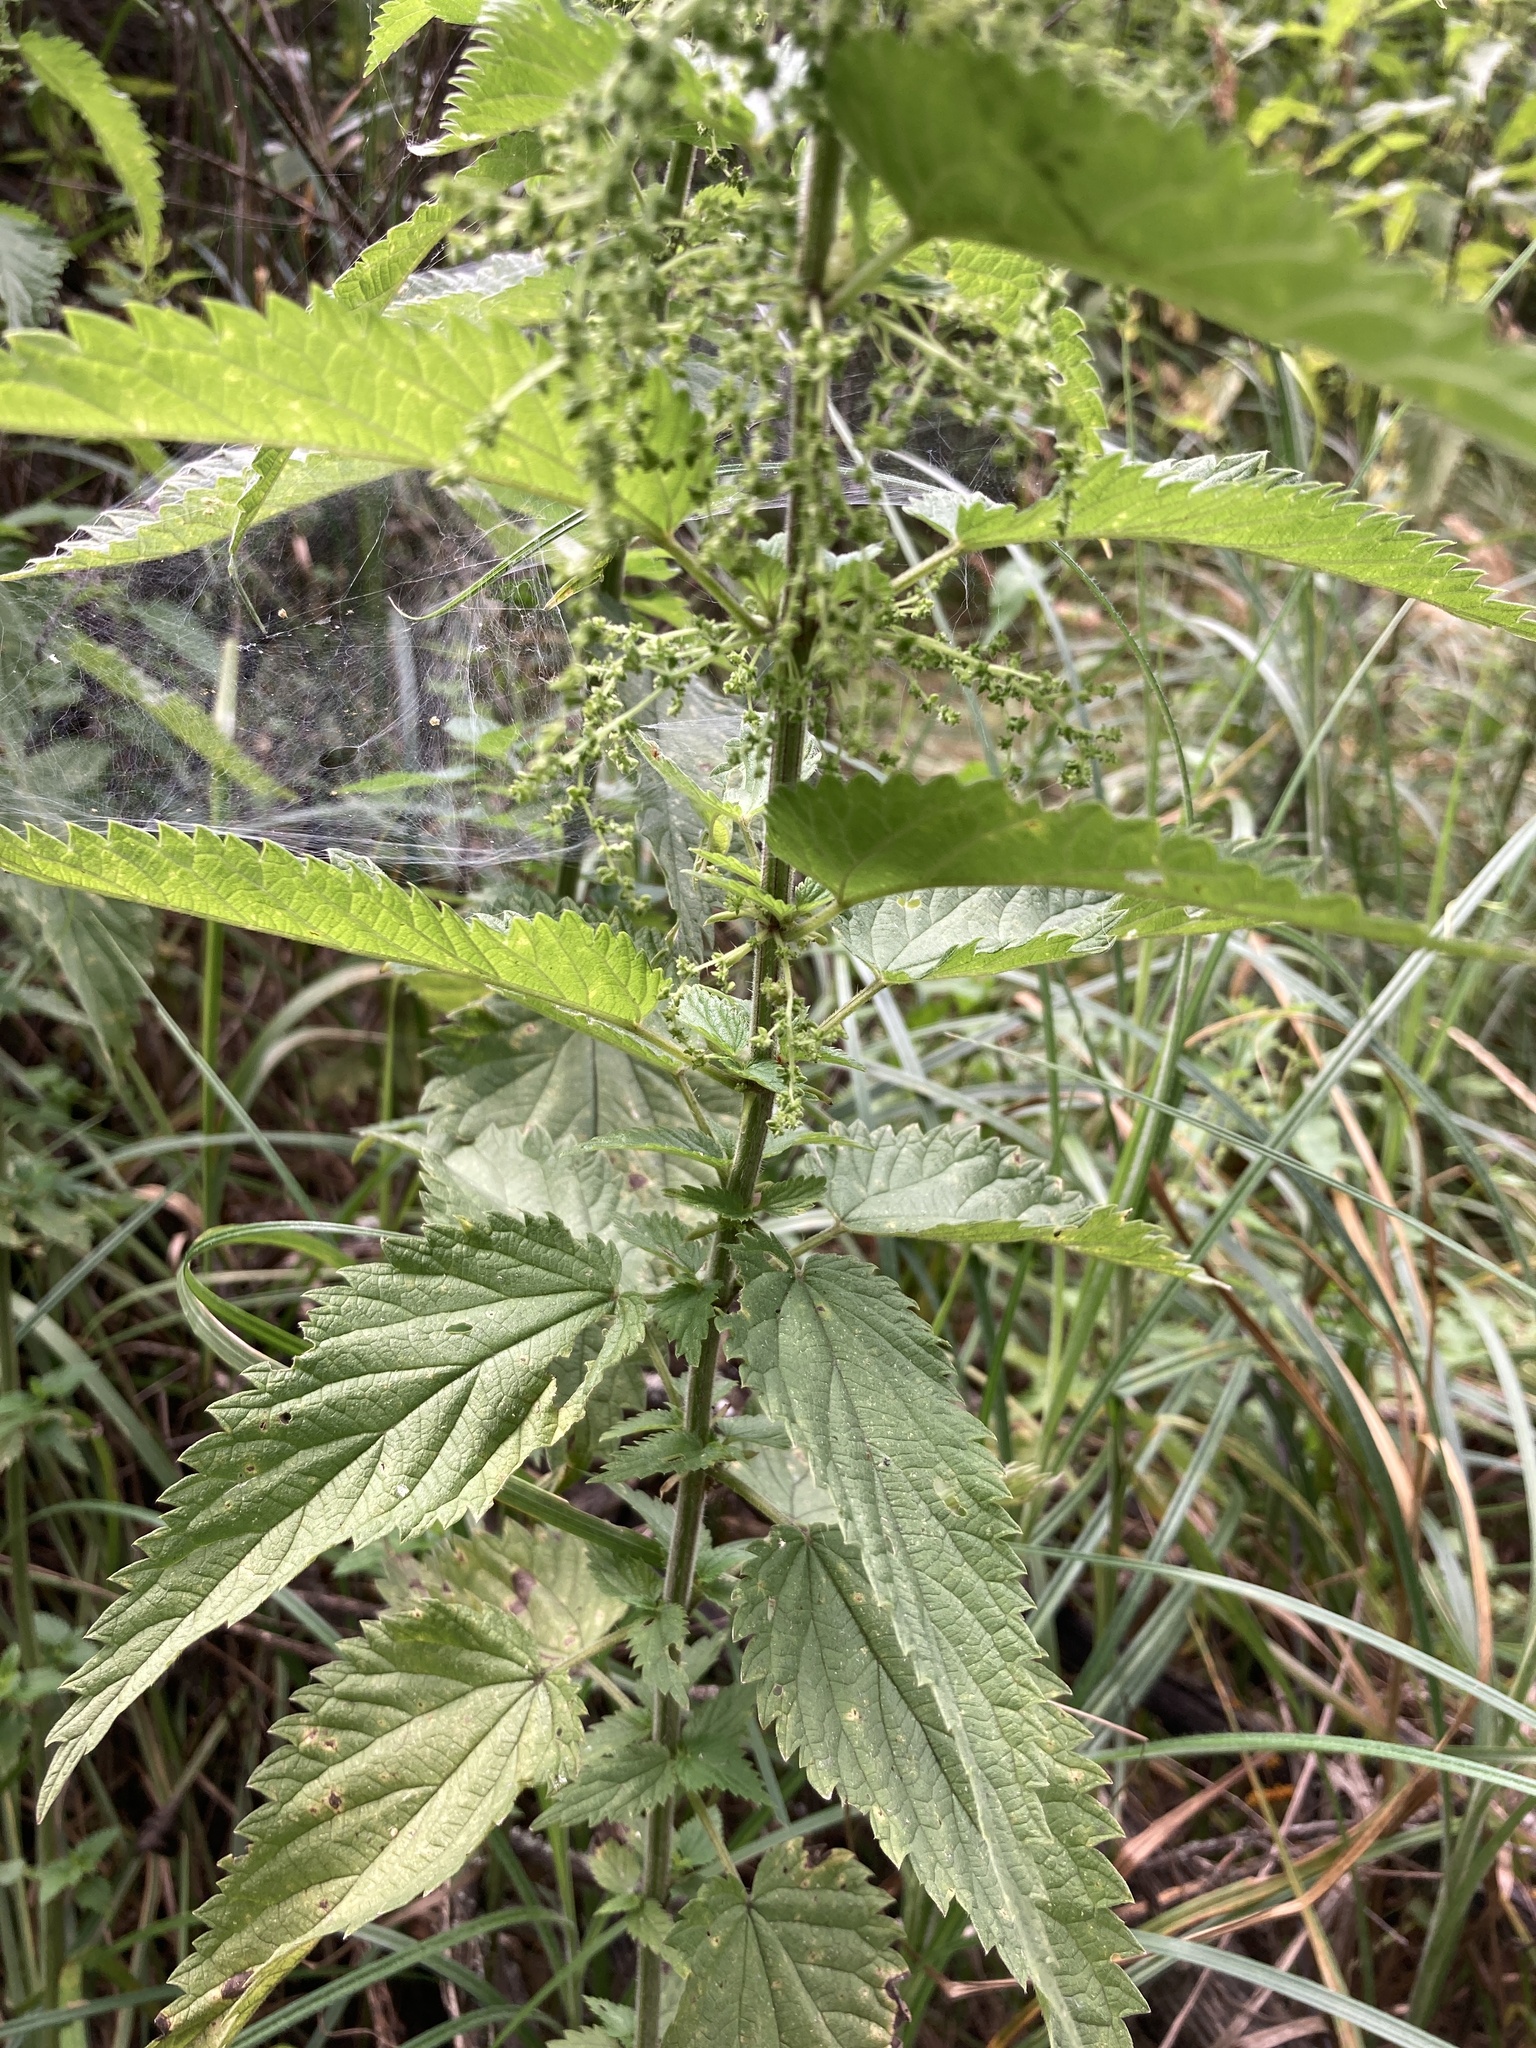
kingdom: Plantae
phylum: Tracheophyta
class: Magnoliopsida
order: Rosales
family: Urticaceae
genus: Urtica
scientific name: Urtica dioica
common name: Common nettle
